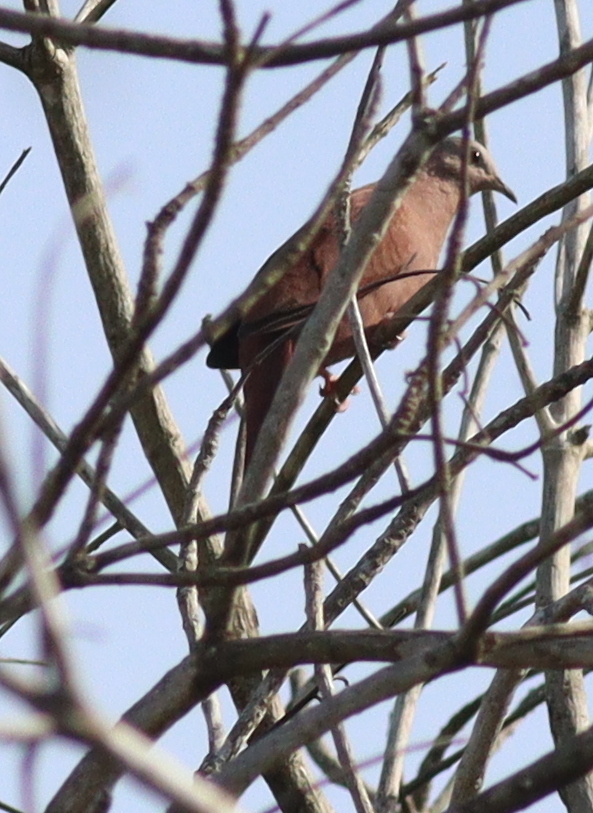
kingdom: Animalia
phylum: Chordata
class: Aves
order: Columbiformes
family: Columbidae
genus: Columbina
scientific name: Columbina talpacoti
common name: Ruddy ground dove
